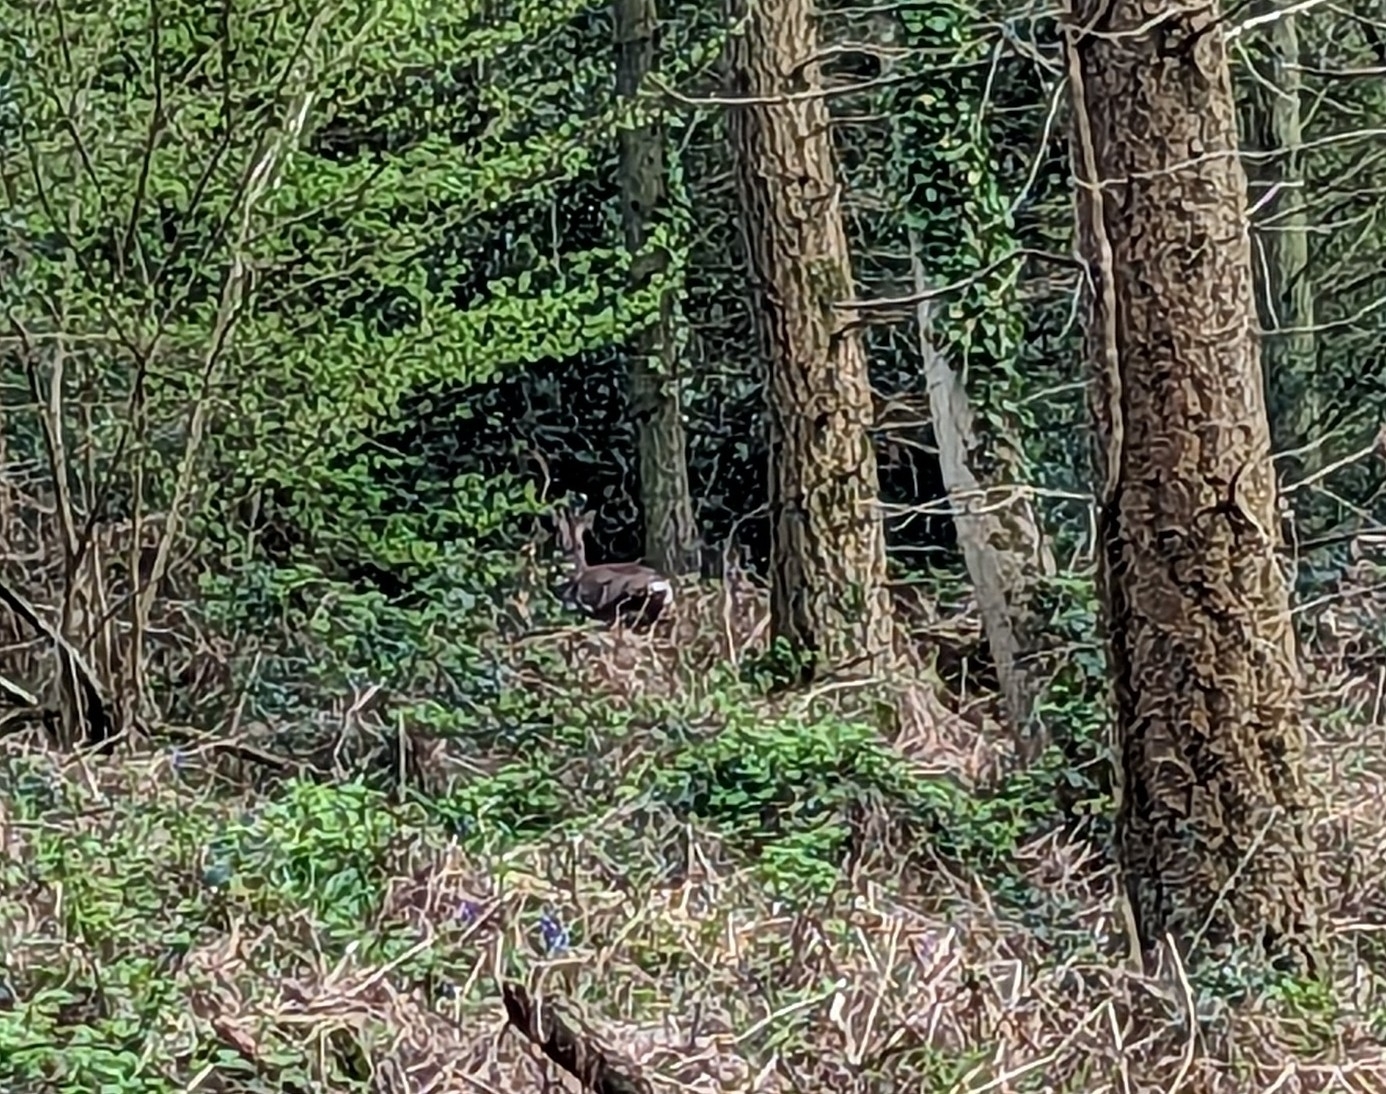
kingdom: Animalia
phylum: Chordata
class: Mammalia
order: Artiodactyla
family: Cervidae
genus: Capreolus
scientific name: Capreolus capreolus
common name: Western roe deer
